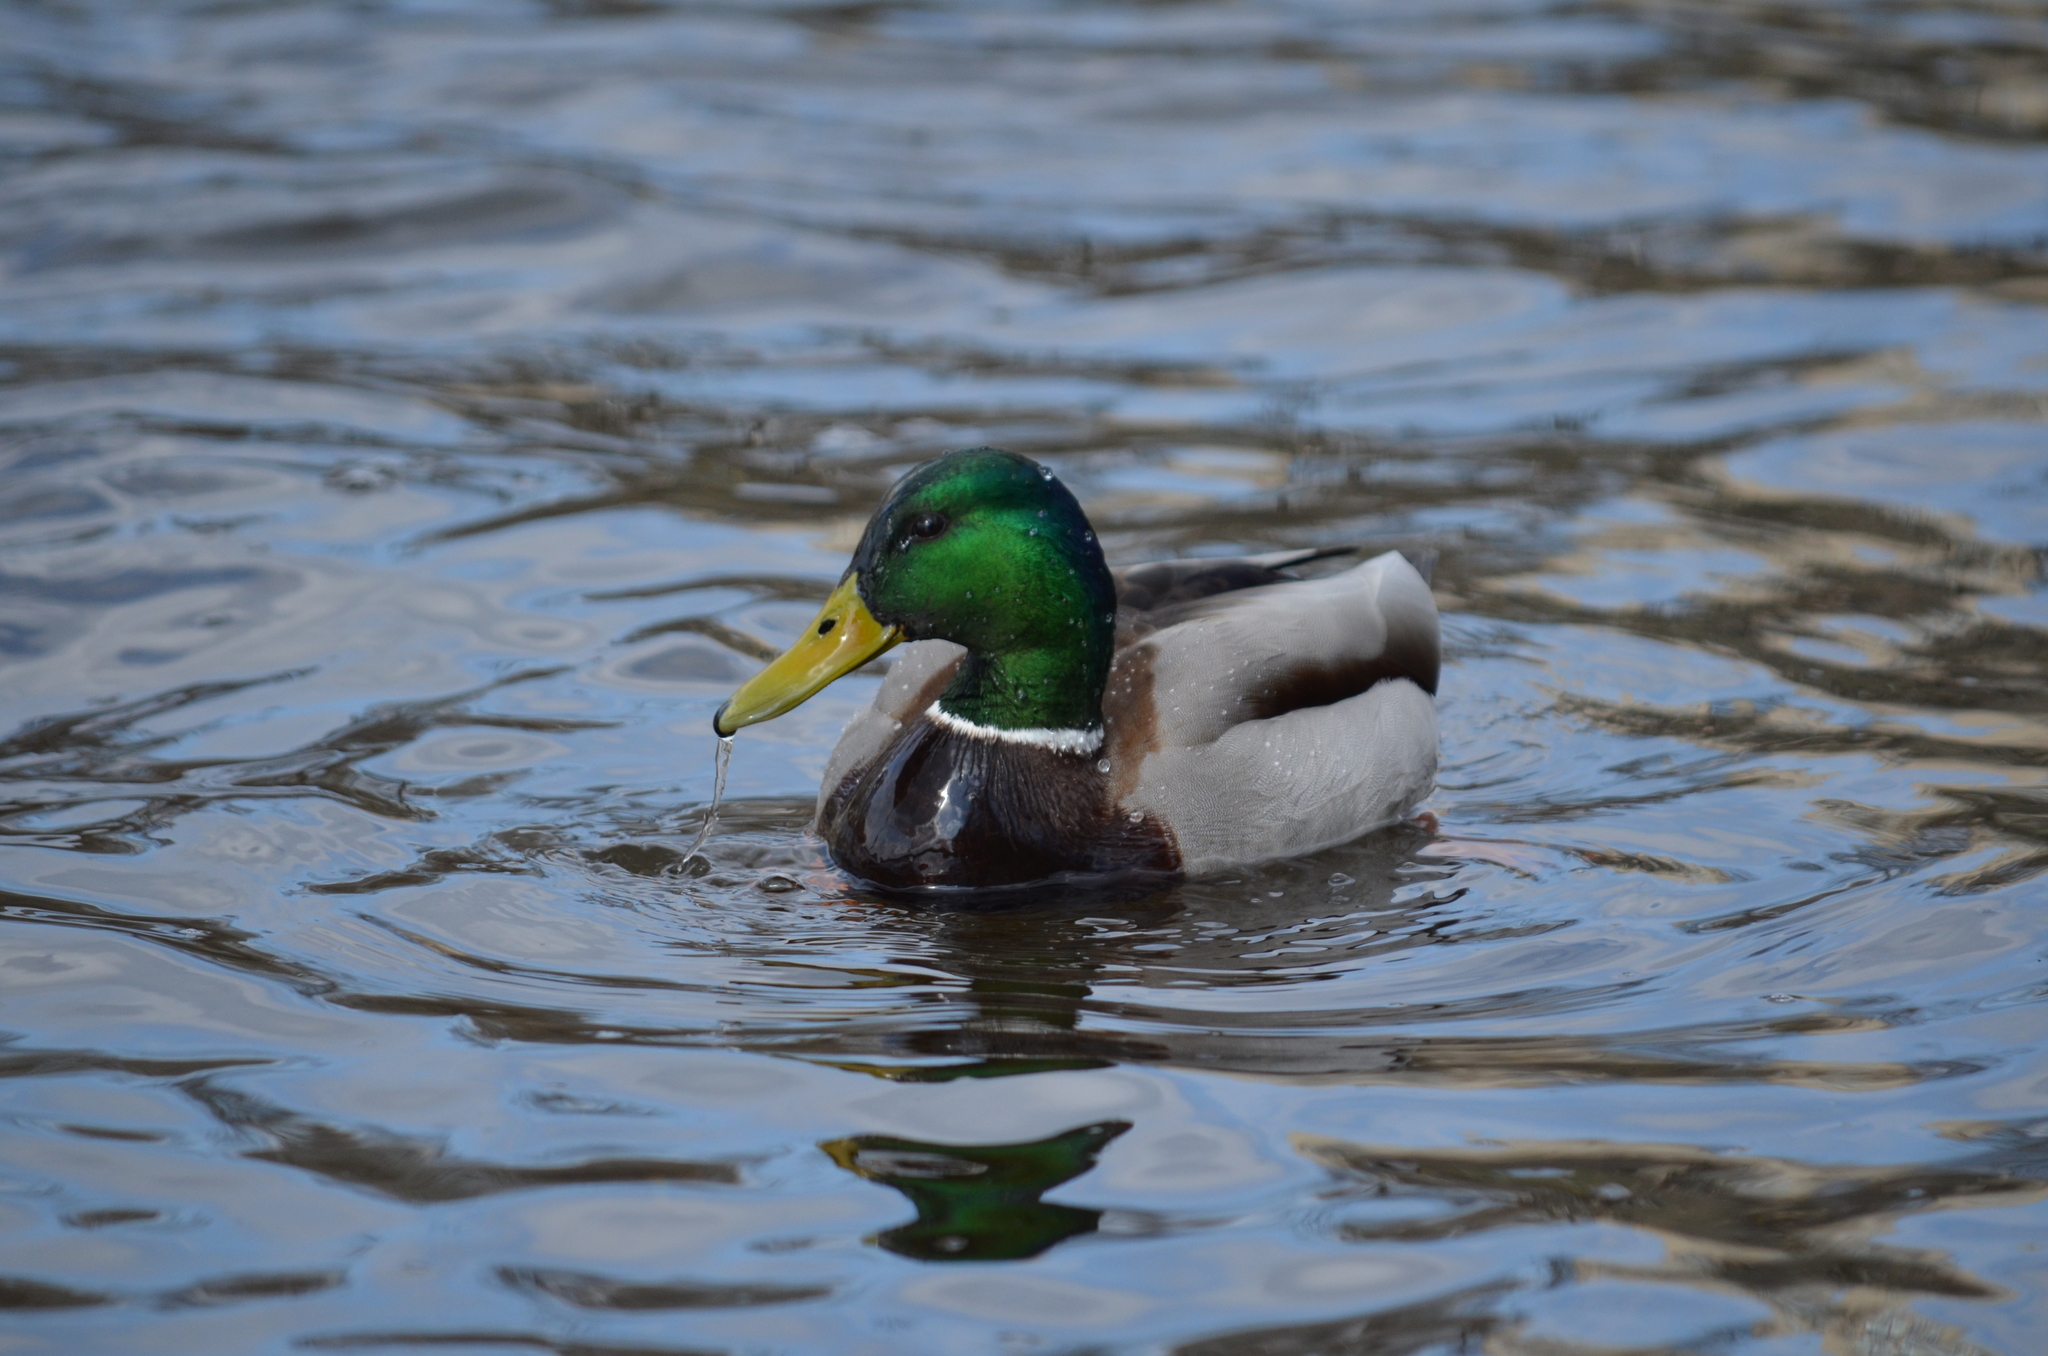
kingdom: Animalia
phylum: Chordata
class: Aves
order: Anseriformes
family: Anatidae
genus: Anas
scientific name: Anas platyrhynchos
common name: Mallard
